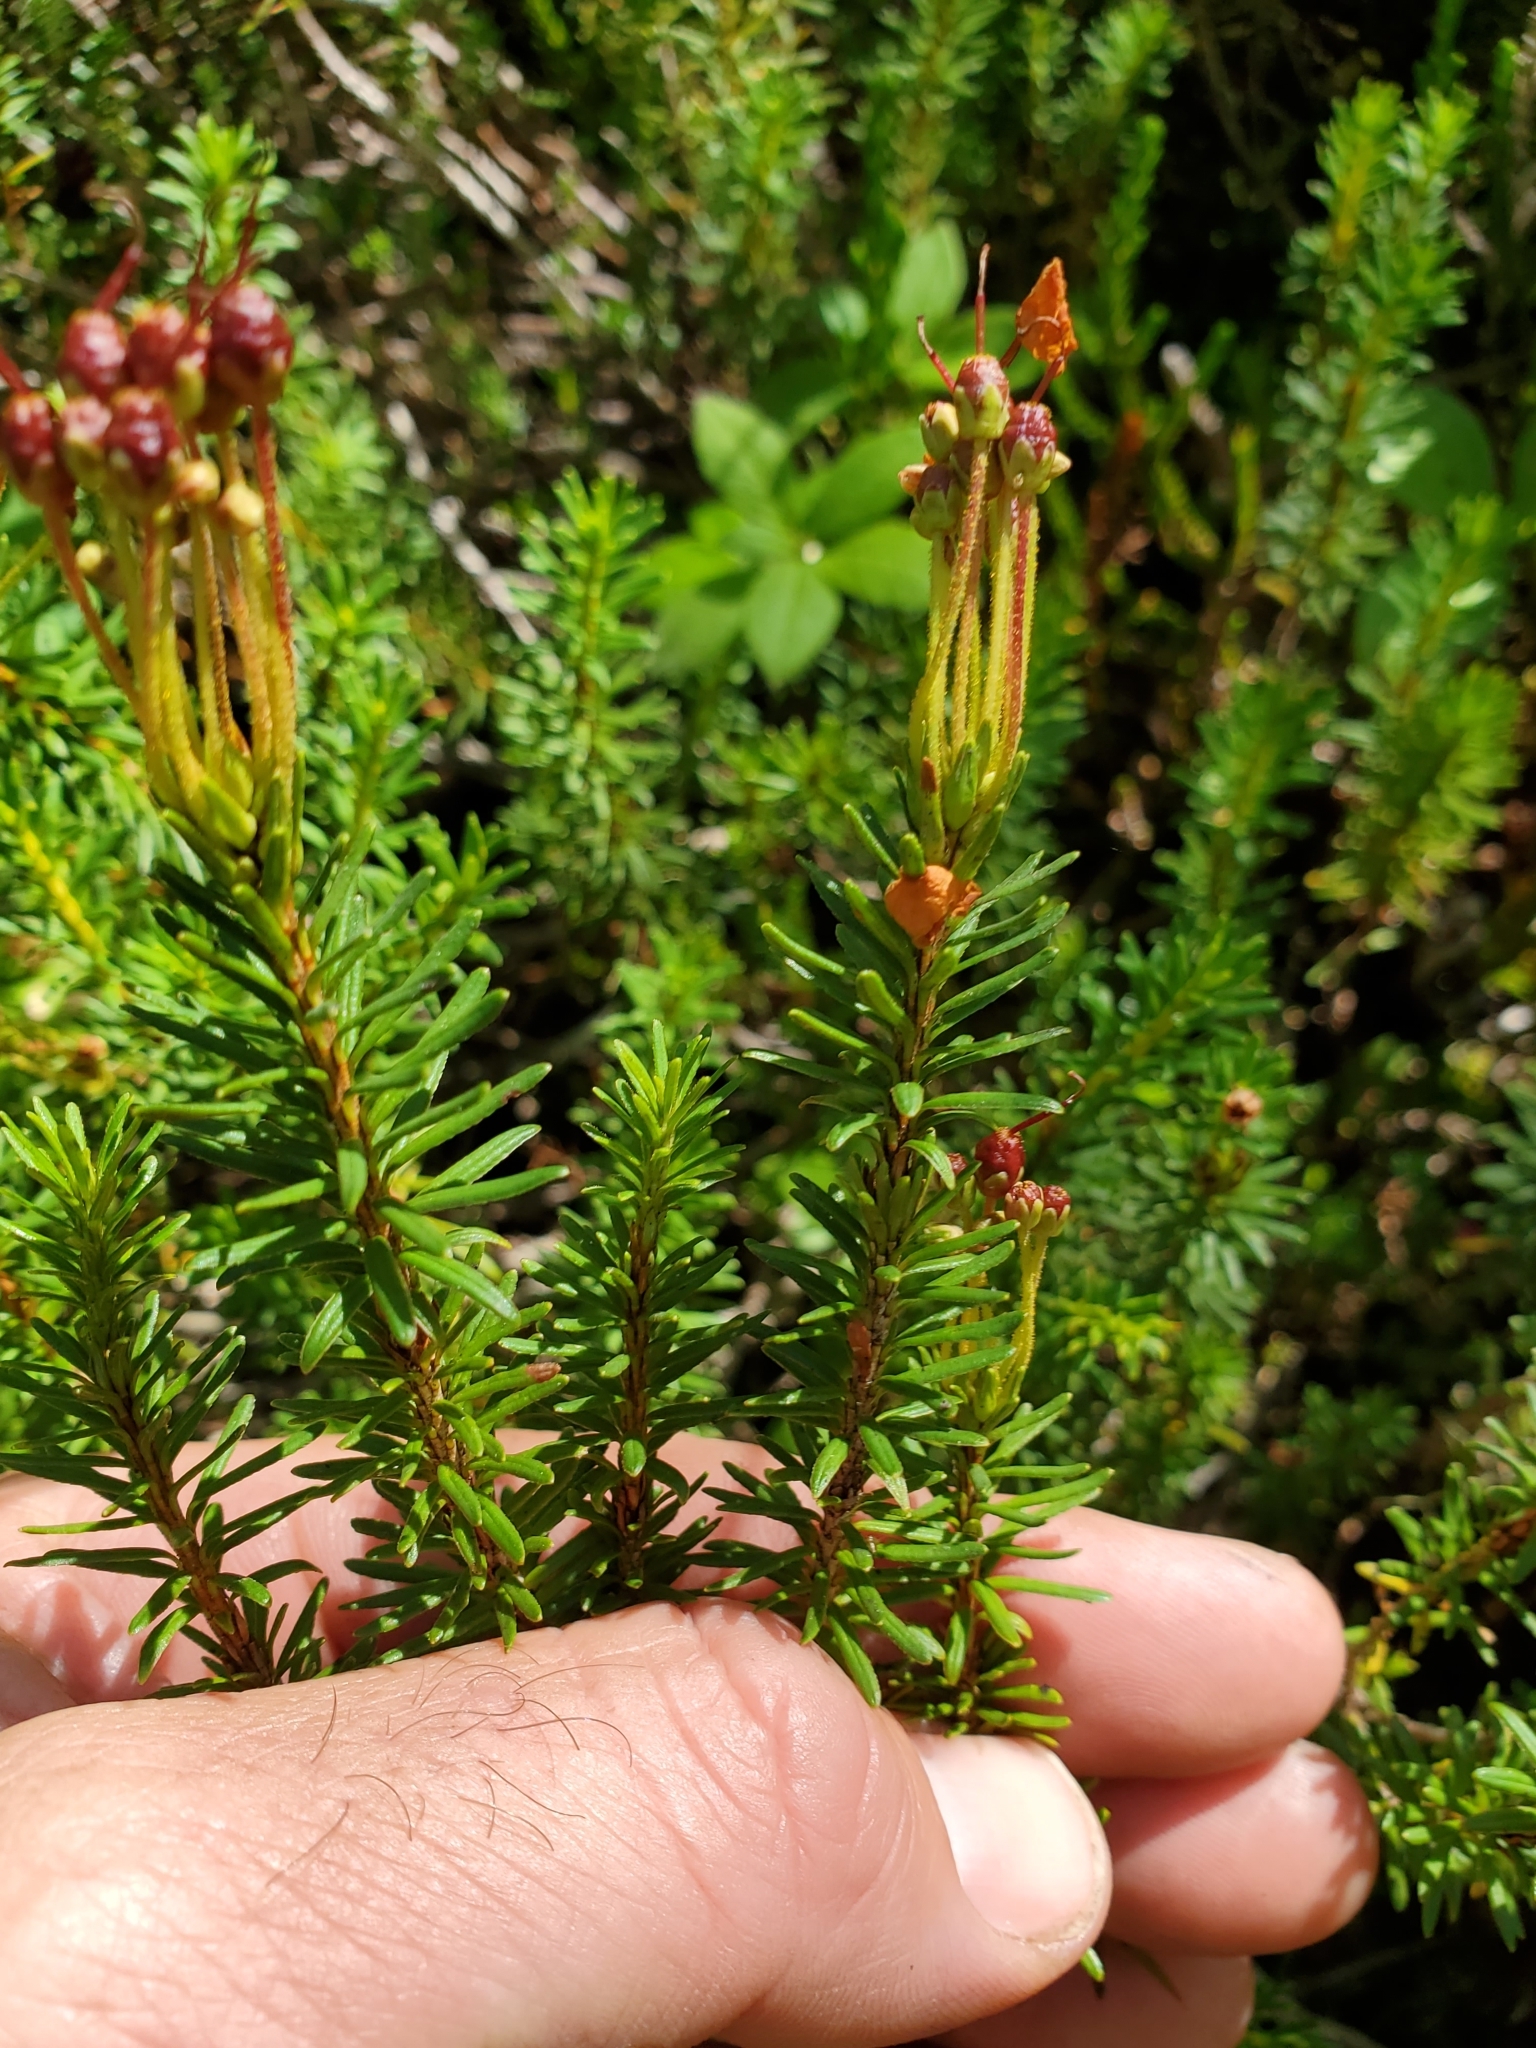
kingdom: Plantae
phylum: Tracheophyta
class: Magnoliopsida
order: Ericales
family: Ericaceae
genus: Phyllodoce
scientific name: Phyllodoce empetriformis
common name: Pink mountain heather
